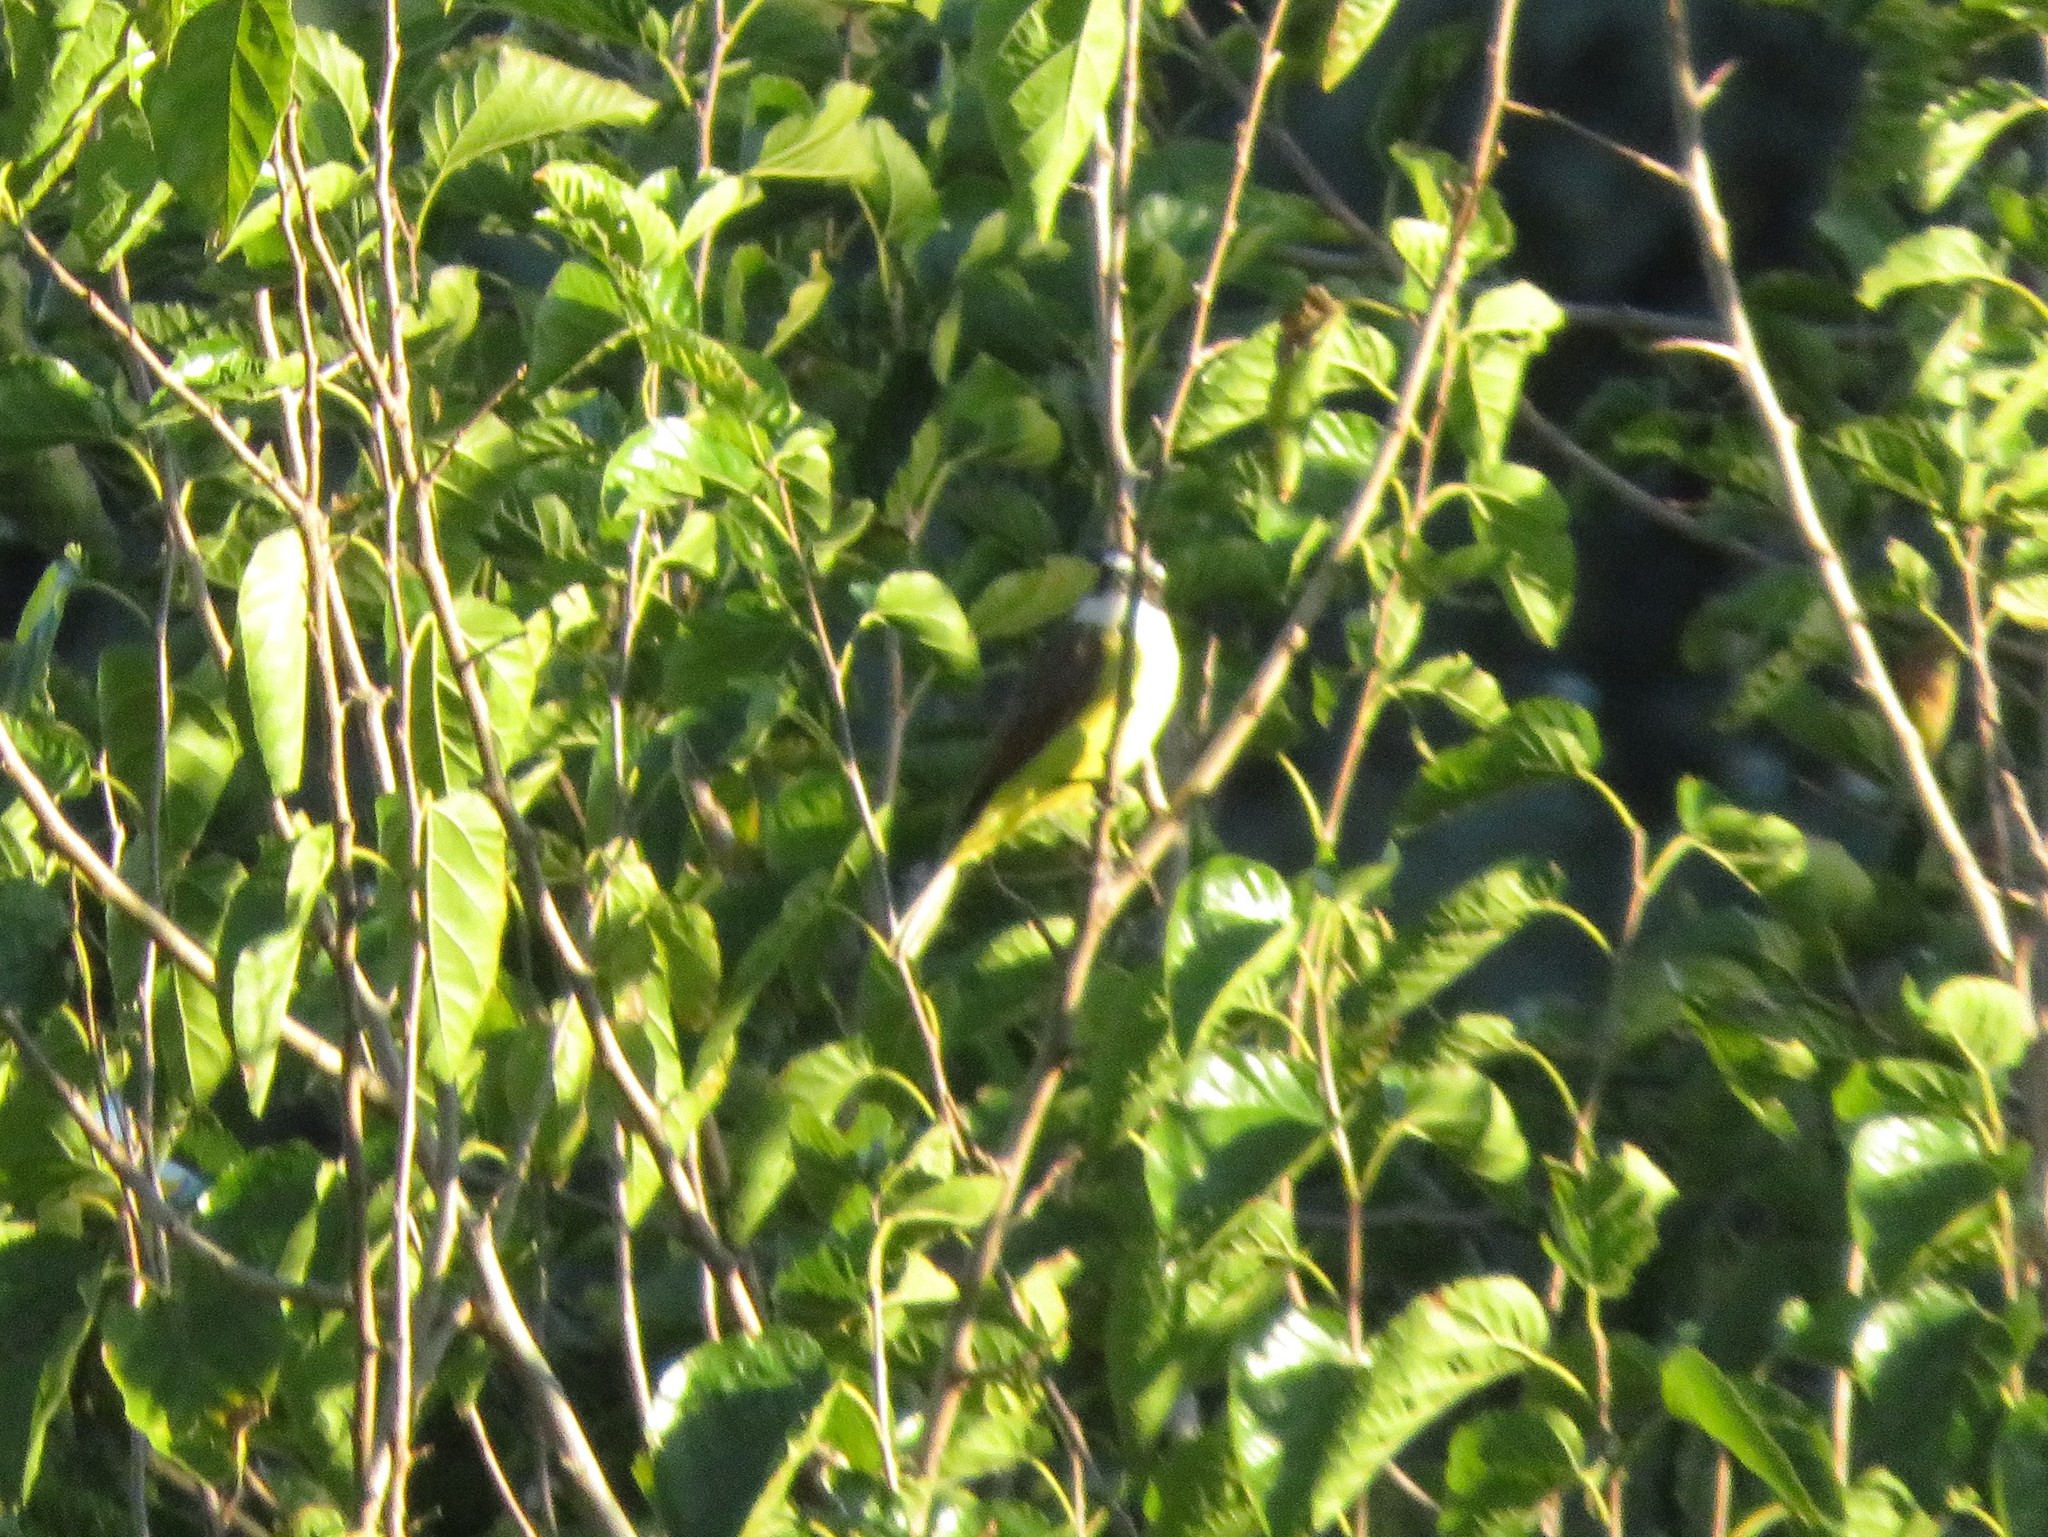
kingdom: Animalia
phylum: Chordata
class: Aves
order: Passeriformes
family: Tyrannidae
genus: Pitangus
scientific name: Pitangus sulphuratus
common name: Great kiskadee
